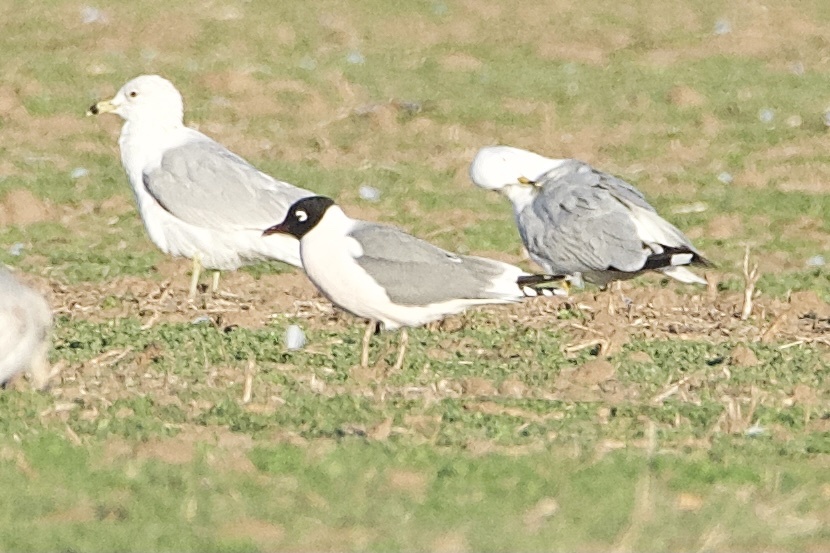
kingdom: Animalia
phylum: Chordata
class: Aves
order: Charadriiformes
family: Laridae
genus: Leucophaeus
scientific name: Leucophaeus pipixcan
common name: Franklin's gull
